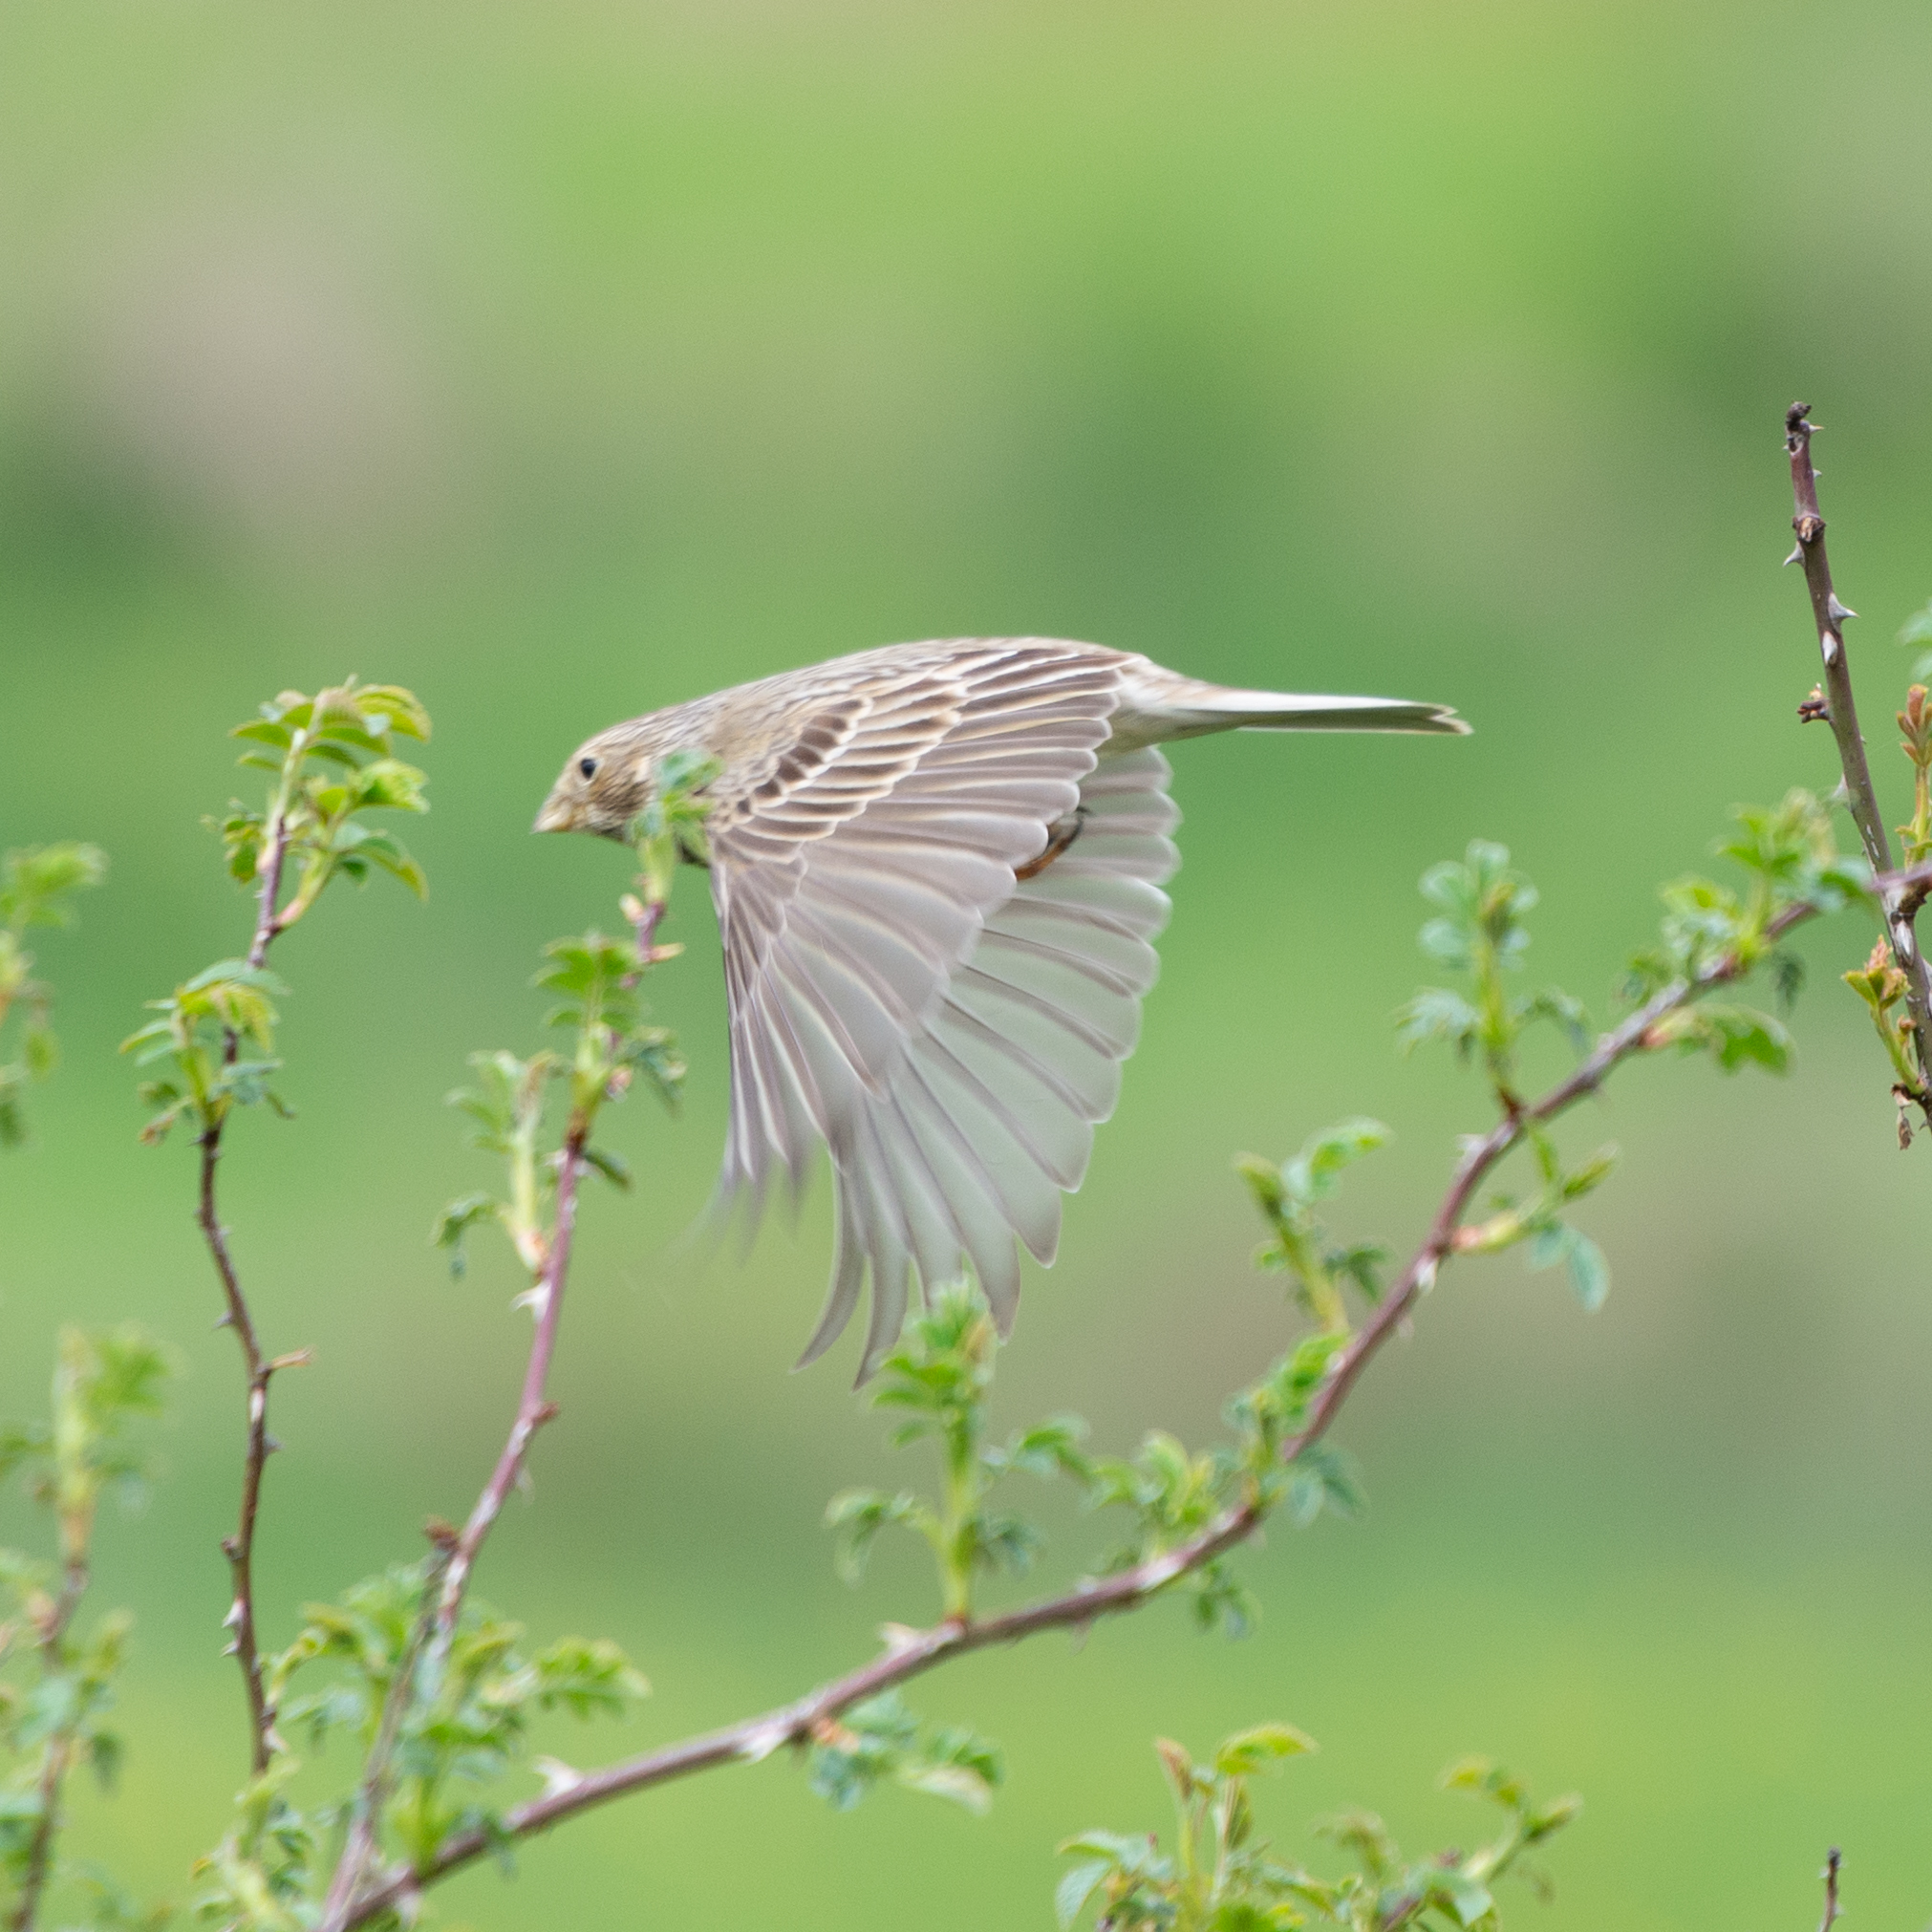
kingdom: Animalia
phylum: Chordata
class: Aves
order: Passeriformes
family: Emberizidae
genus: Emberiza
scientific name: Emberiza calandra
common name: Corn bunting
